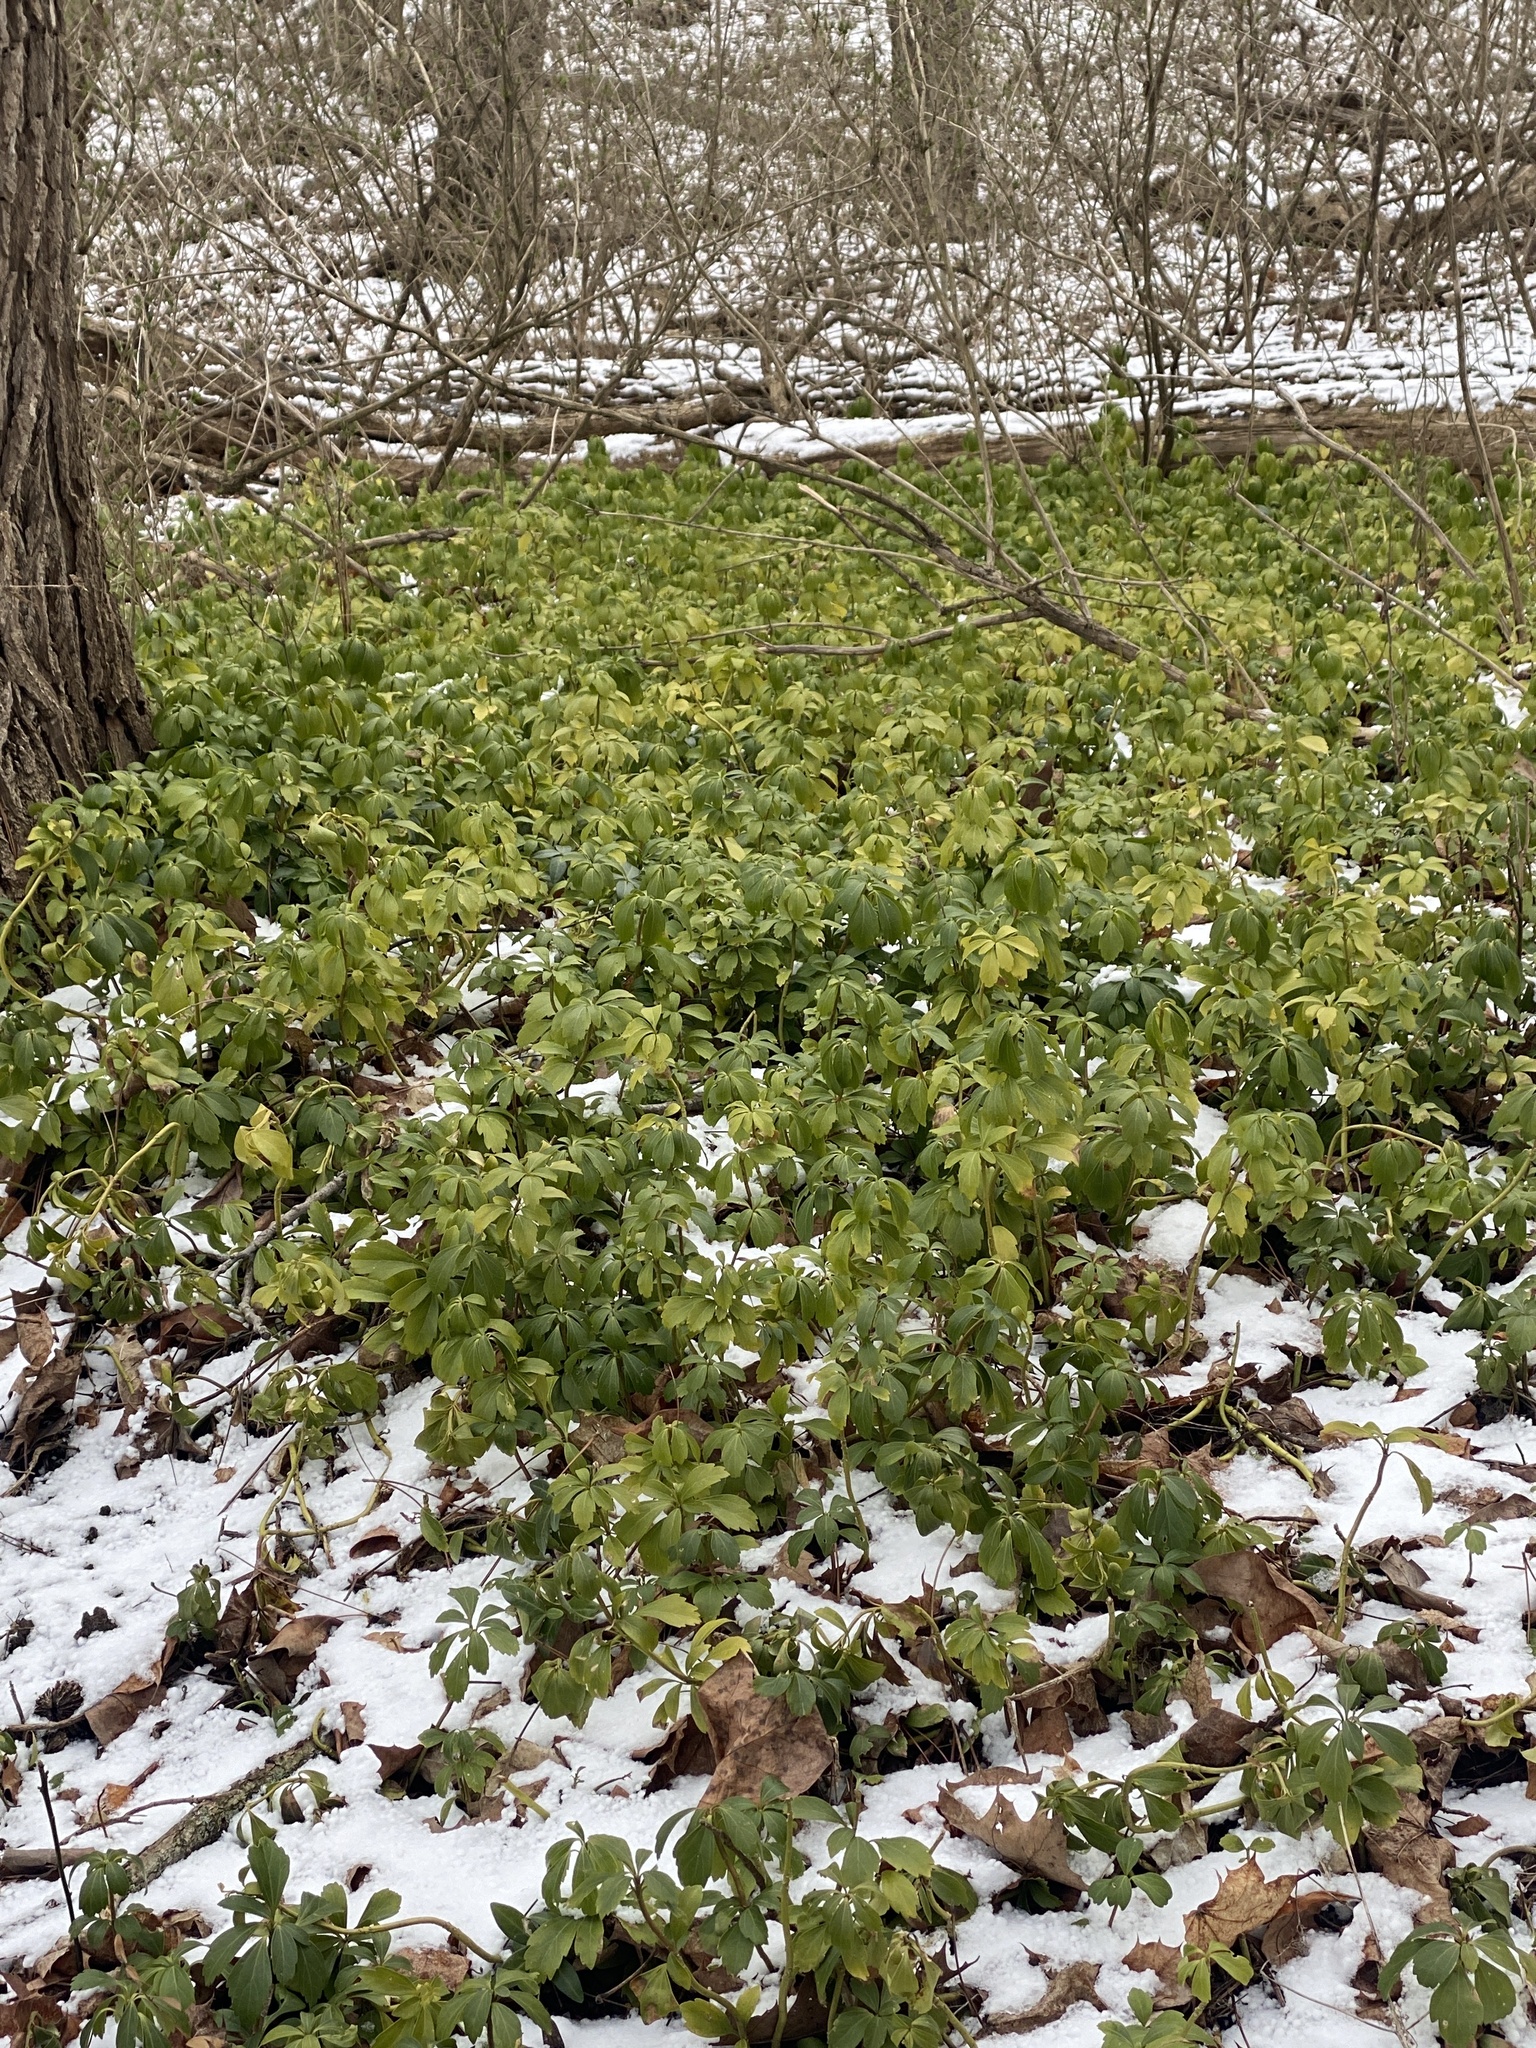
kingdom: Plantae
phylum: Tracheophyta
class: Magnoliopsida
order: Buxales
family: Buxaceae
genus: Pachysandra
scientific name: Pachysandra terminalis
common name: Japanese pachysandra
